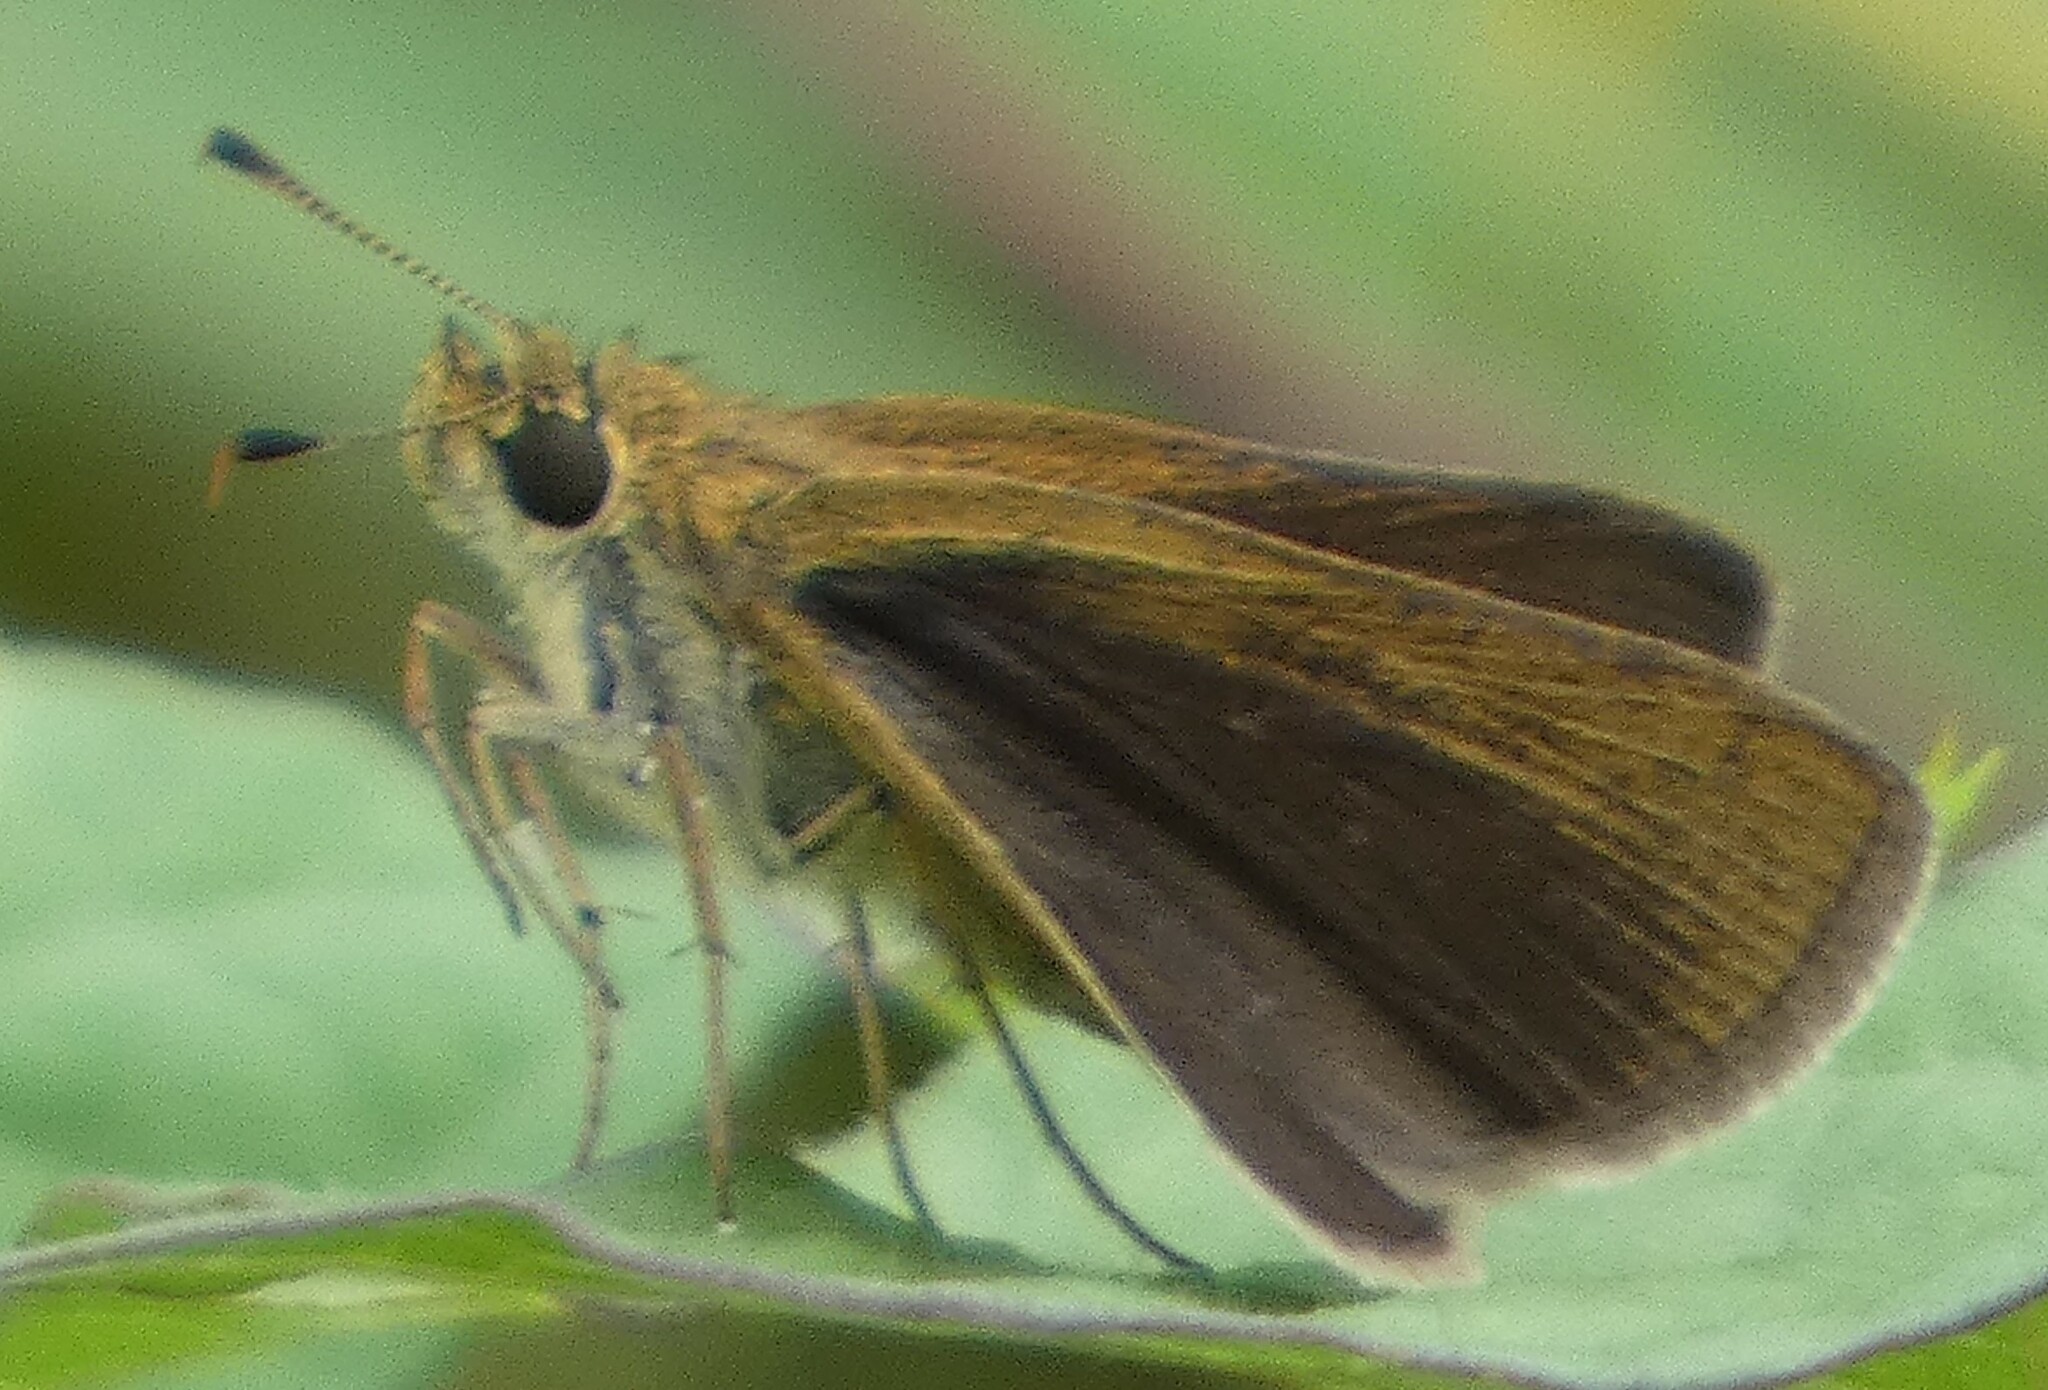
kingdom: Animalia
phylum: Arthropoda
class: Insecta
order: Lepidoptera
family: Hesperiidae
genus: Nastra
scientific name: Nastra lherminier
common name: Swarthy skipper
